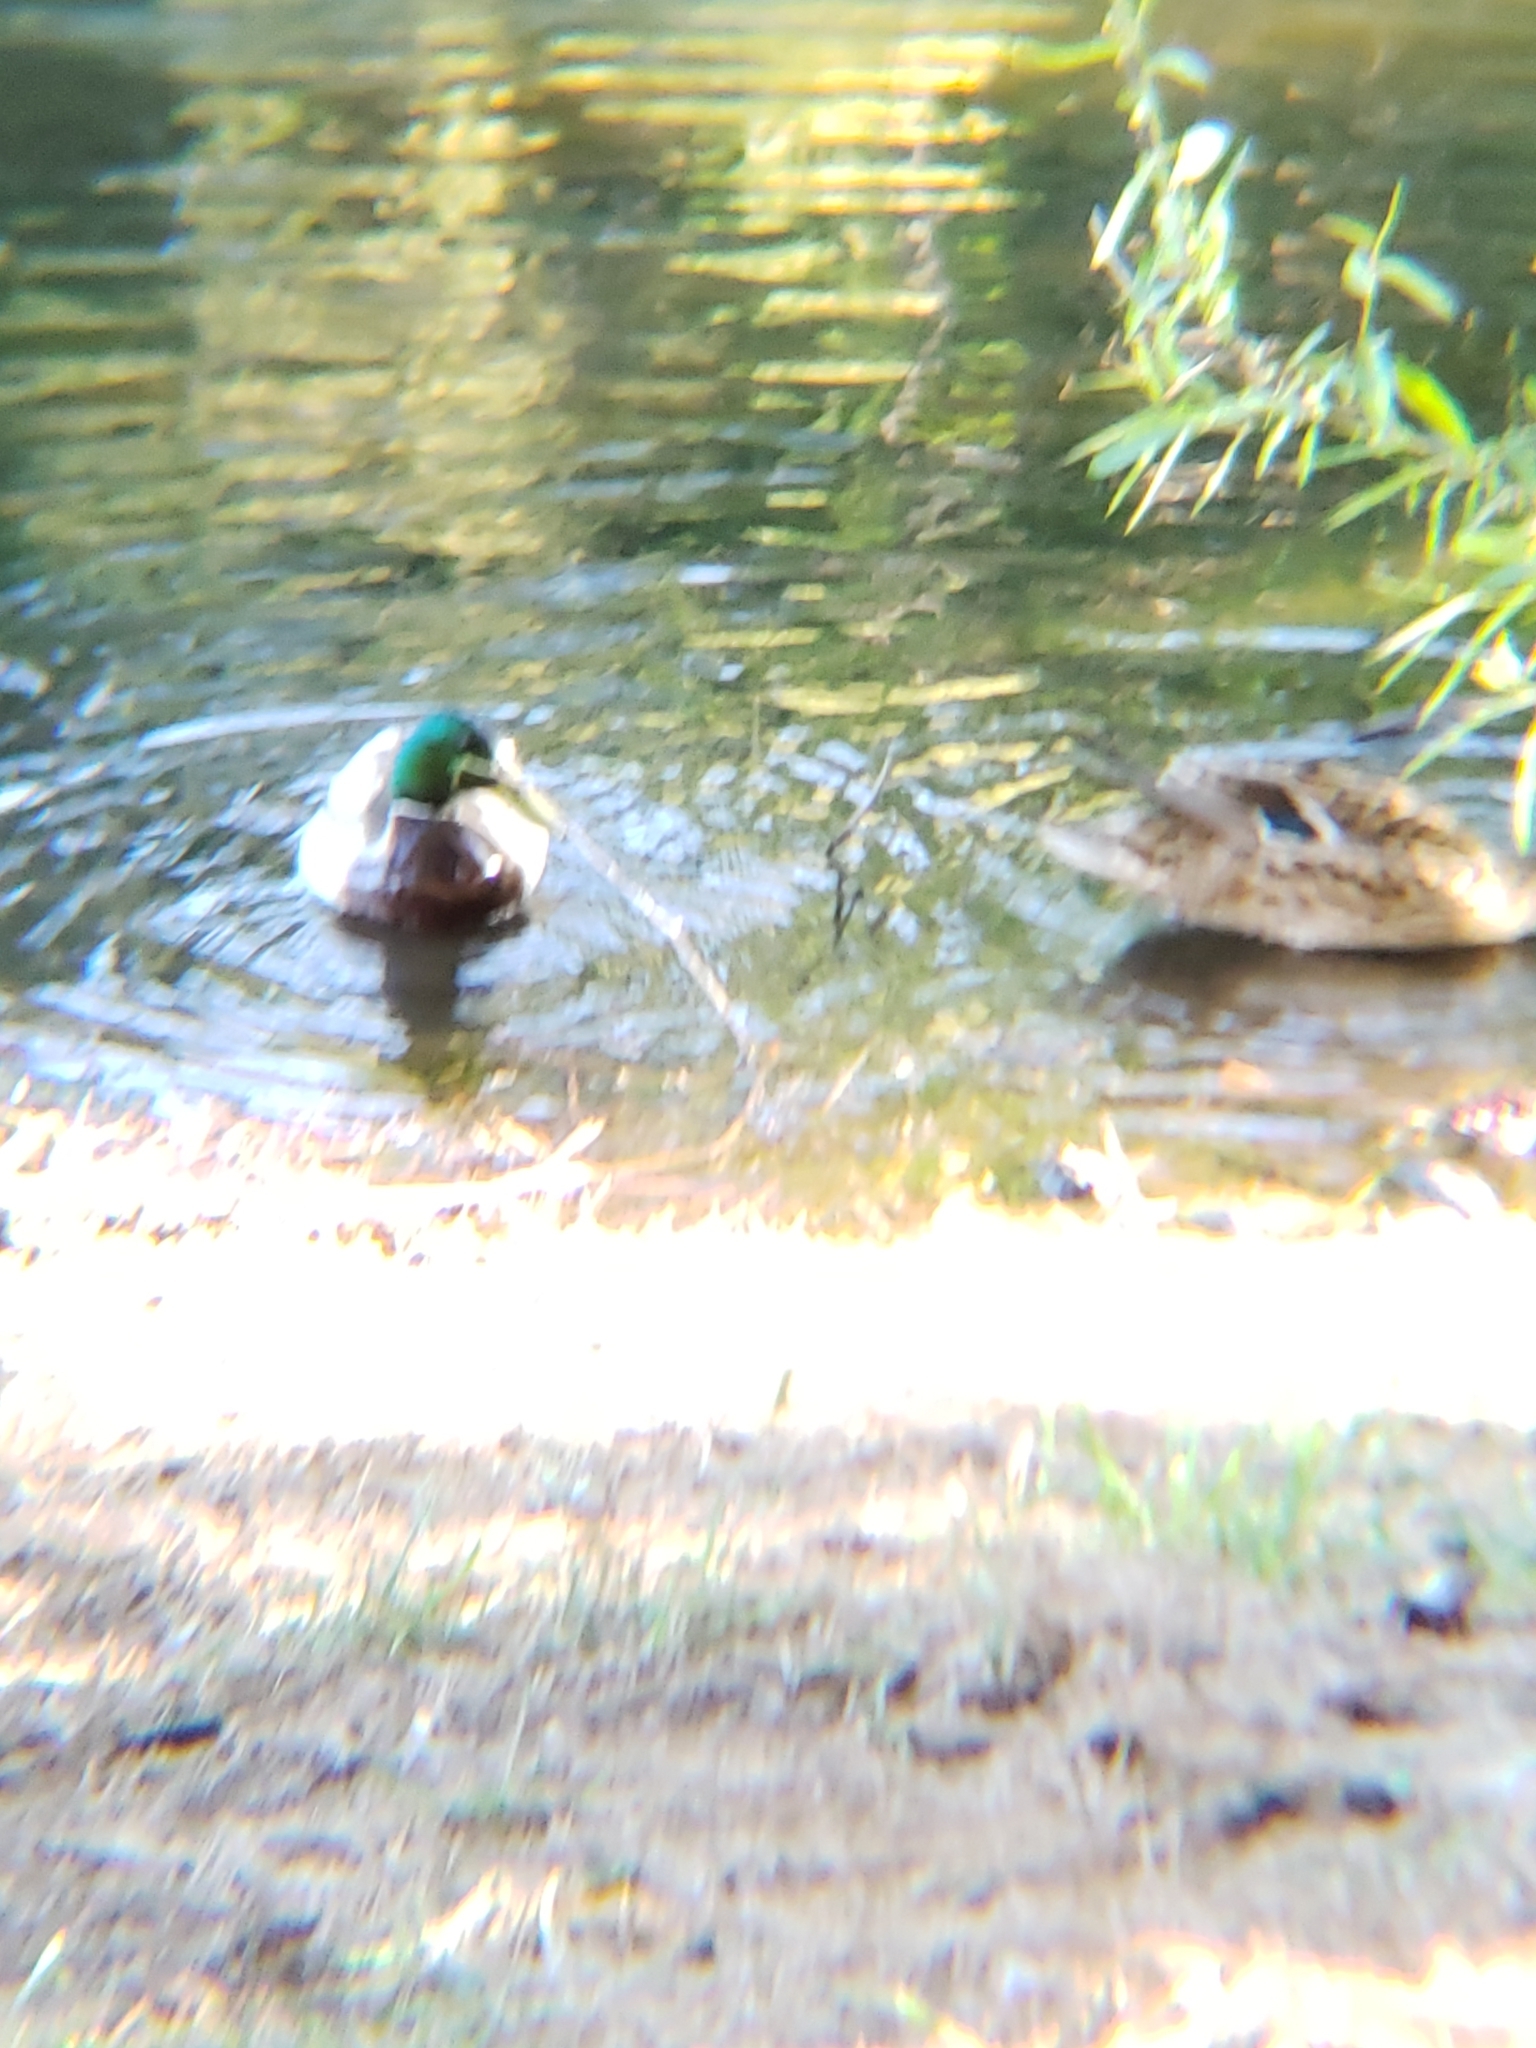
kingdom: Animalia
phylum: Chordata
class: Aves
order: Anseriformes
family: Anatidae
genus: Anas
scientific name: Anas platyrhynchos
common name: Mallard
